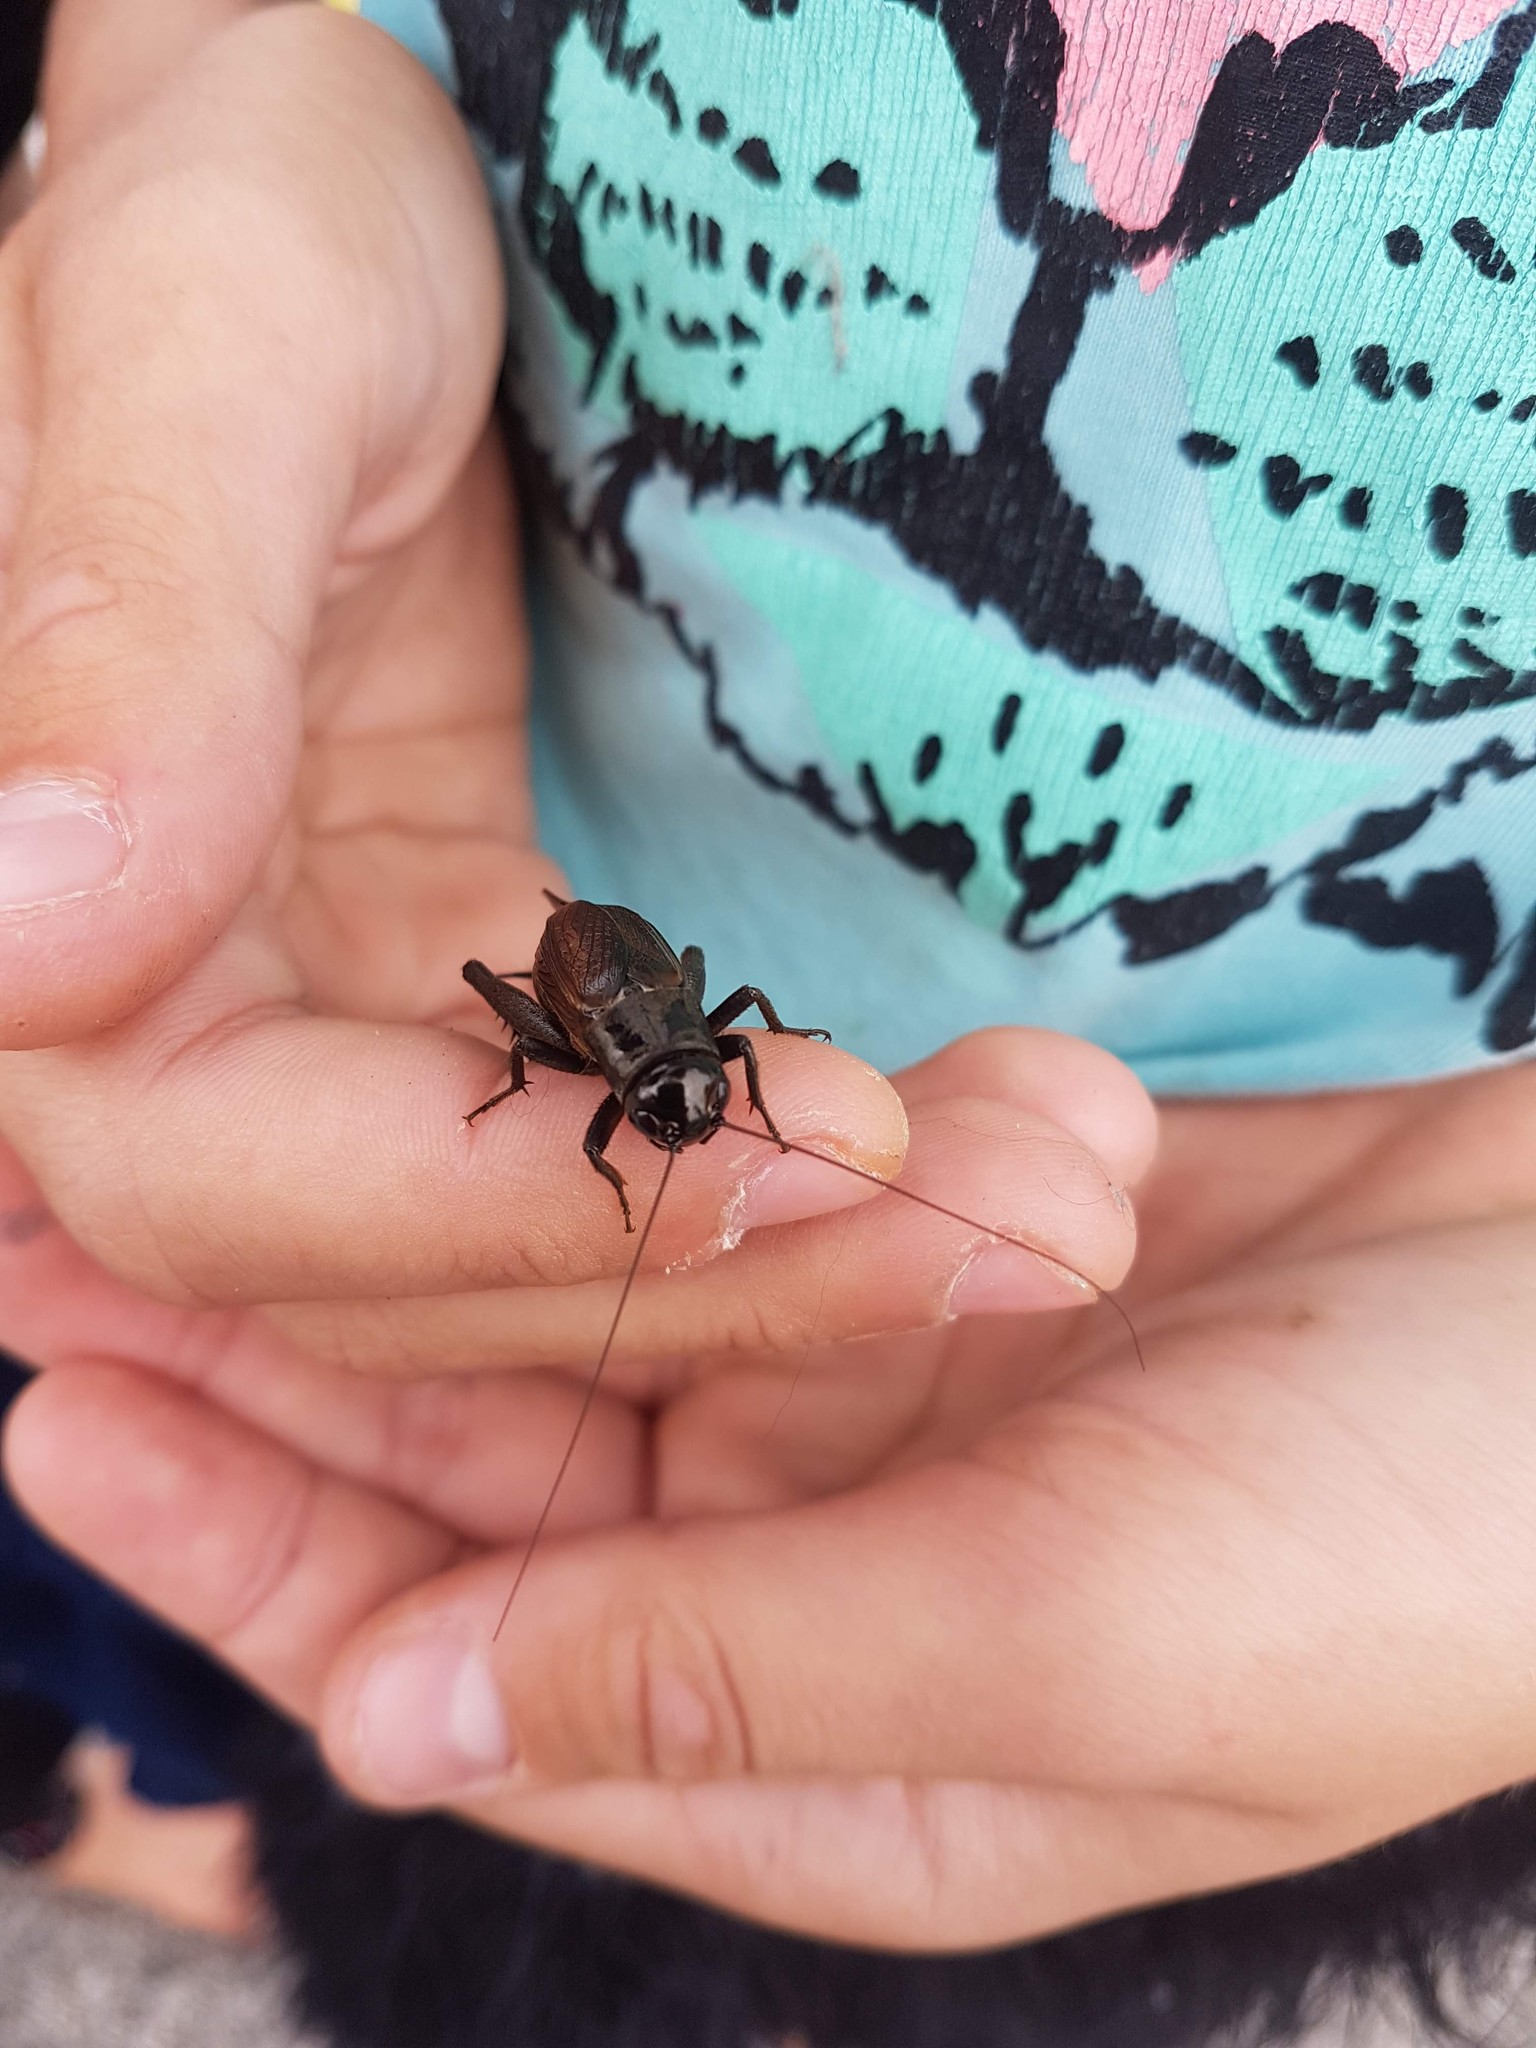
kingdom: Animalia
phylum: Arthropoda
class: Insecta
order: Orthoptera
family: Gryllidae
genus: Teleogryllus
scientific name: Teleogryllus commodus
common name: Black field cricket
